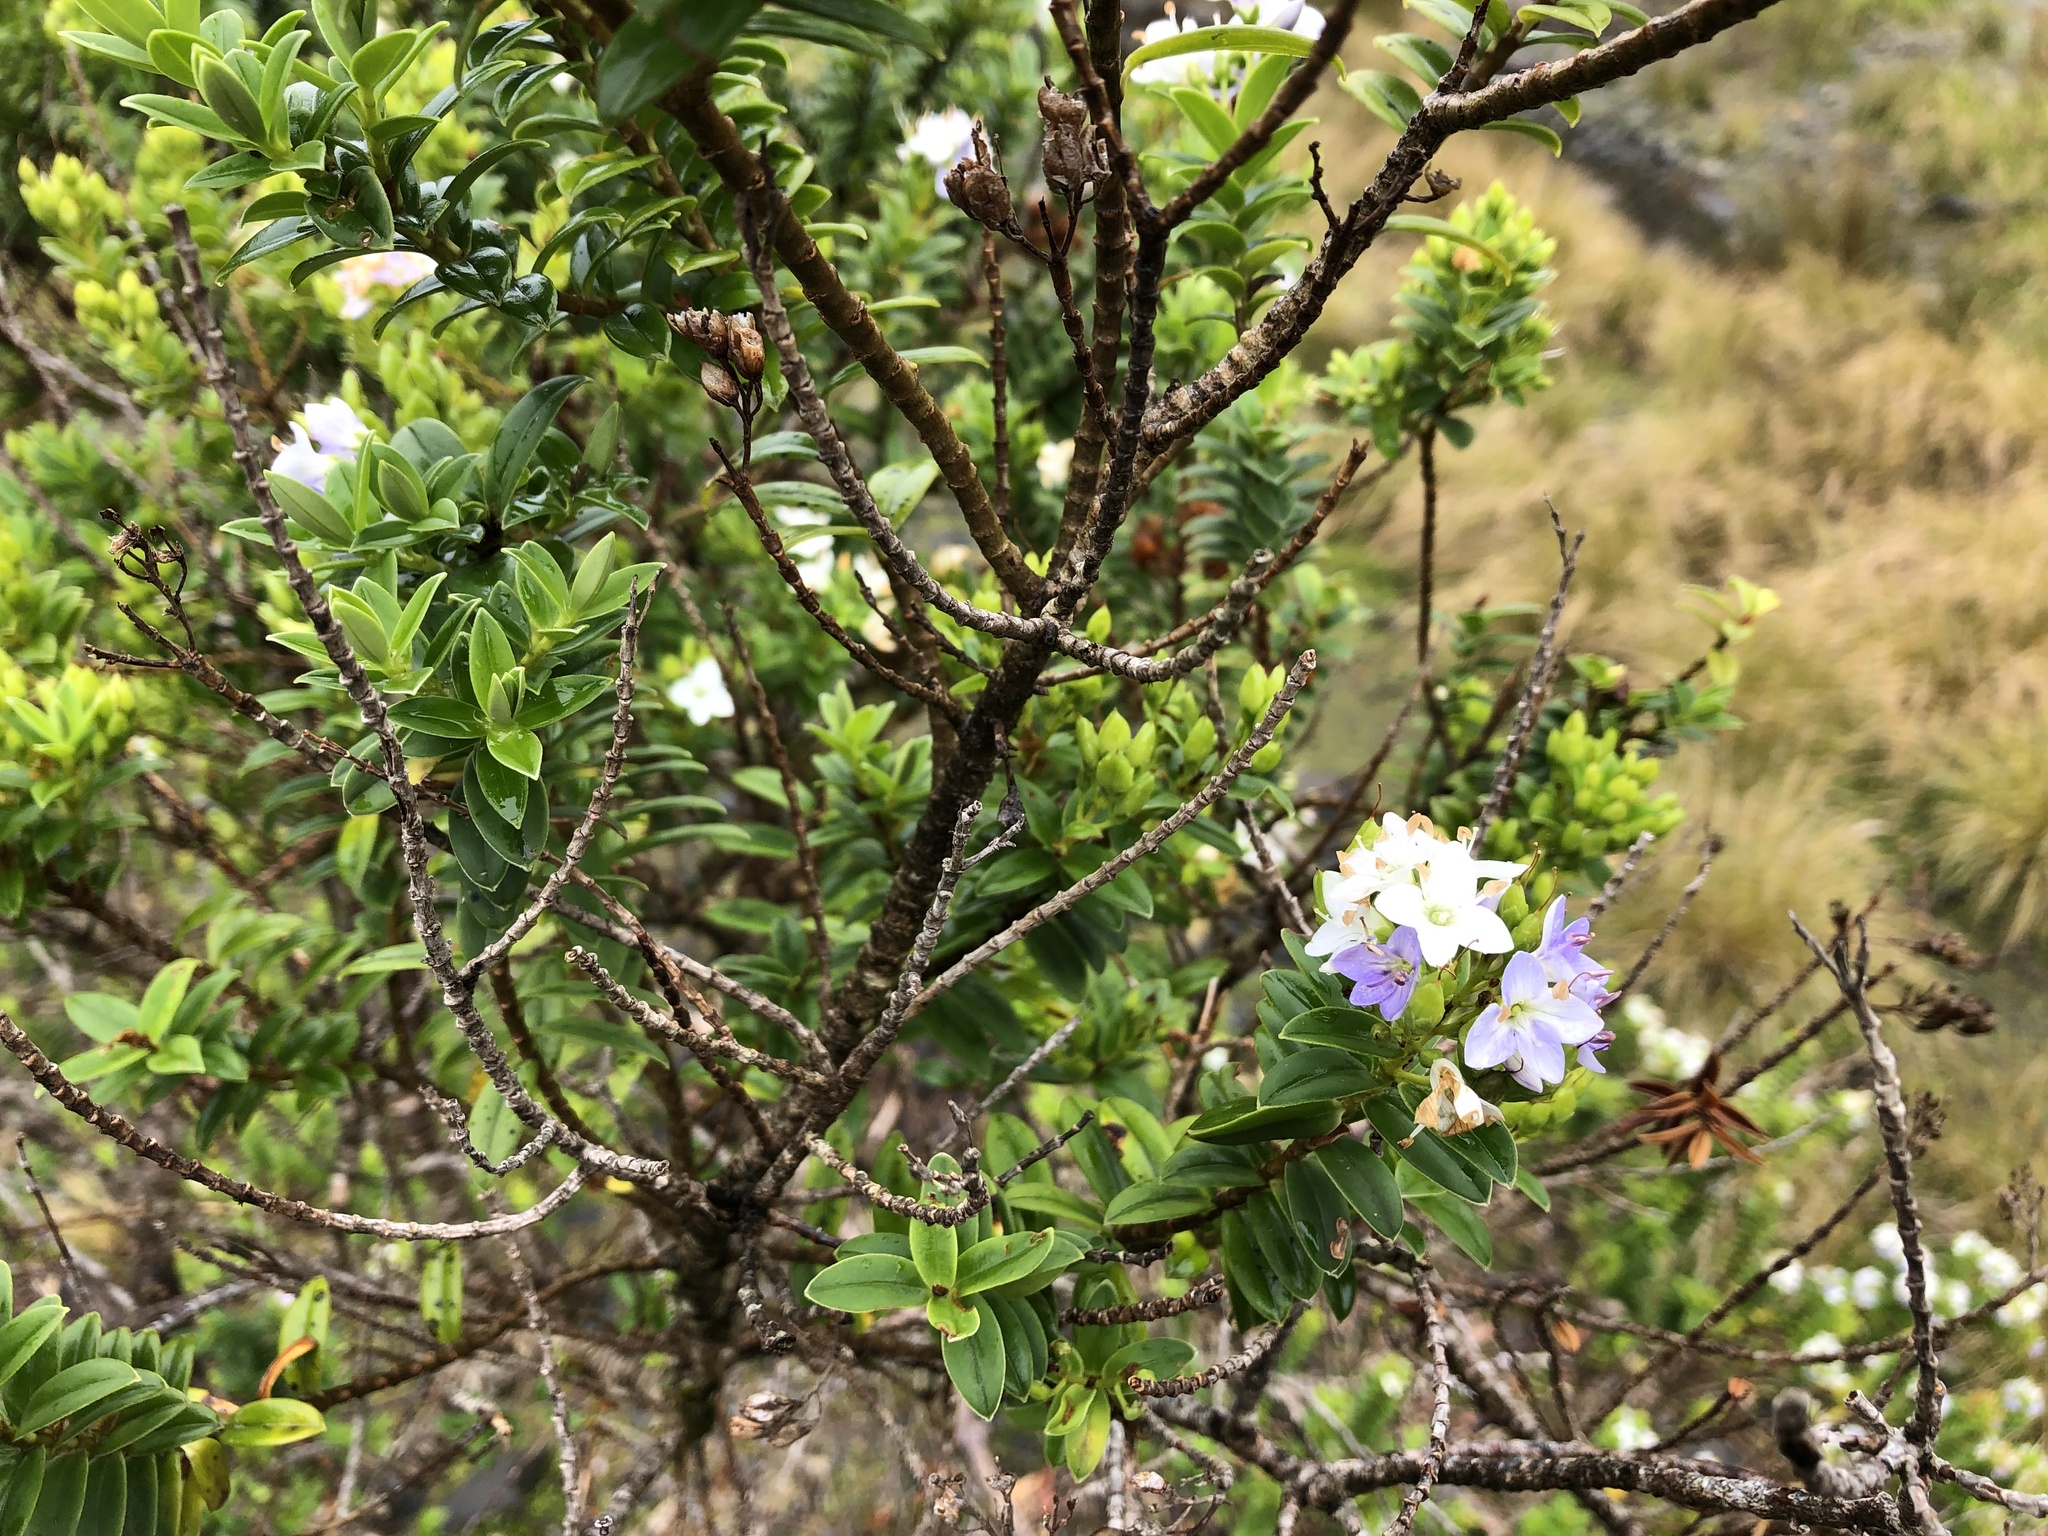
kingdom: Plantae
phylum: Tracheophyta
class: Magnoliopsida
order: Lamiales
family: Plantaginaceae
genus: Veronica
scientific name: Veronica elliptica
